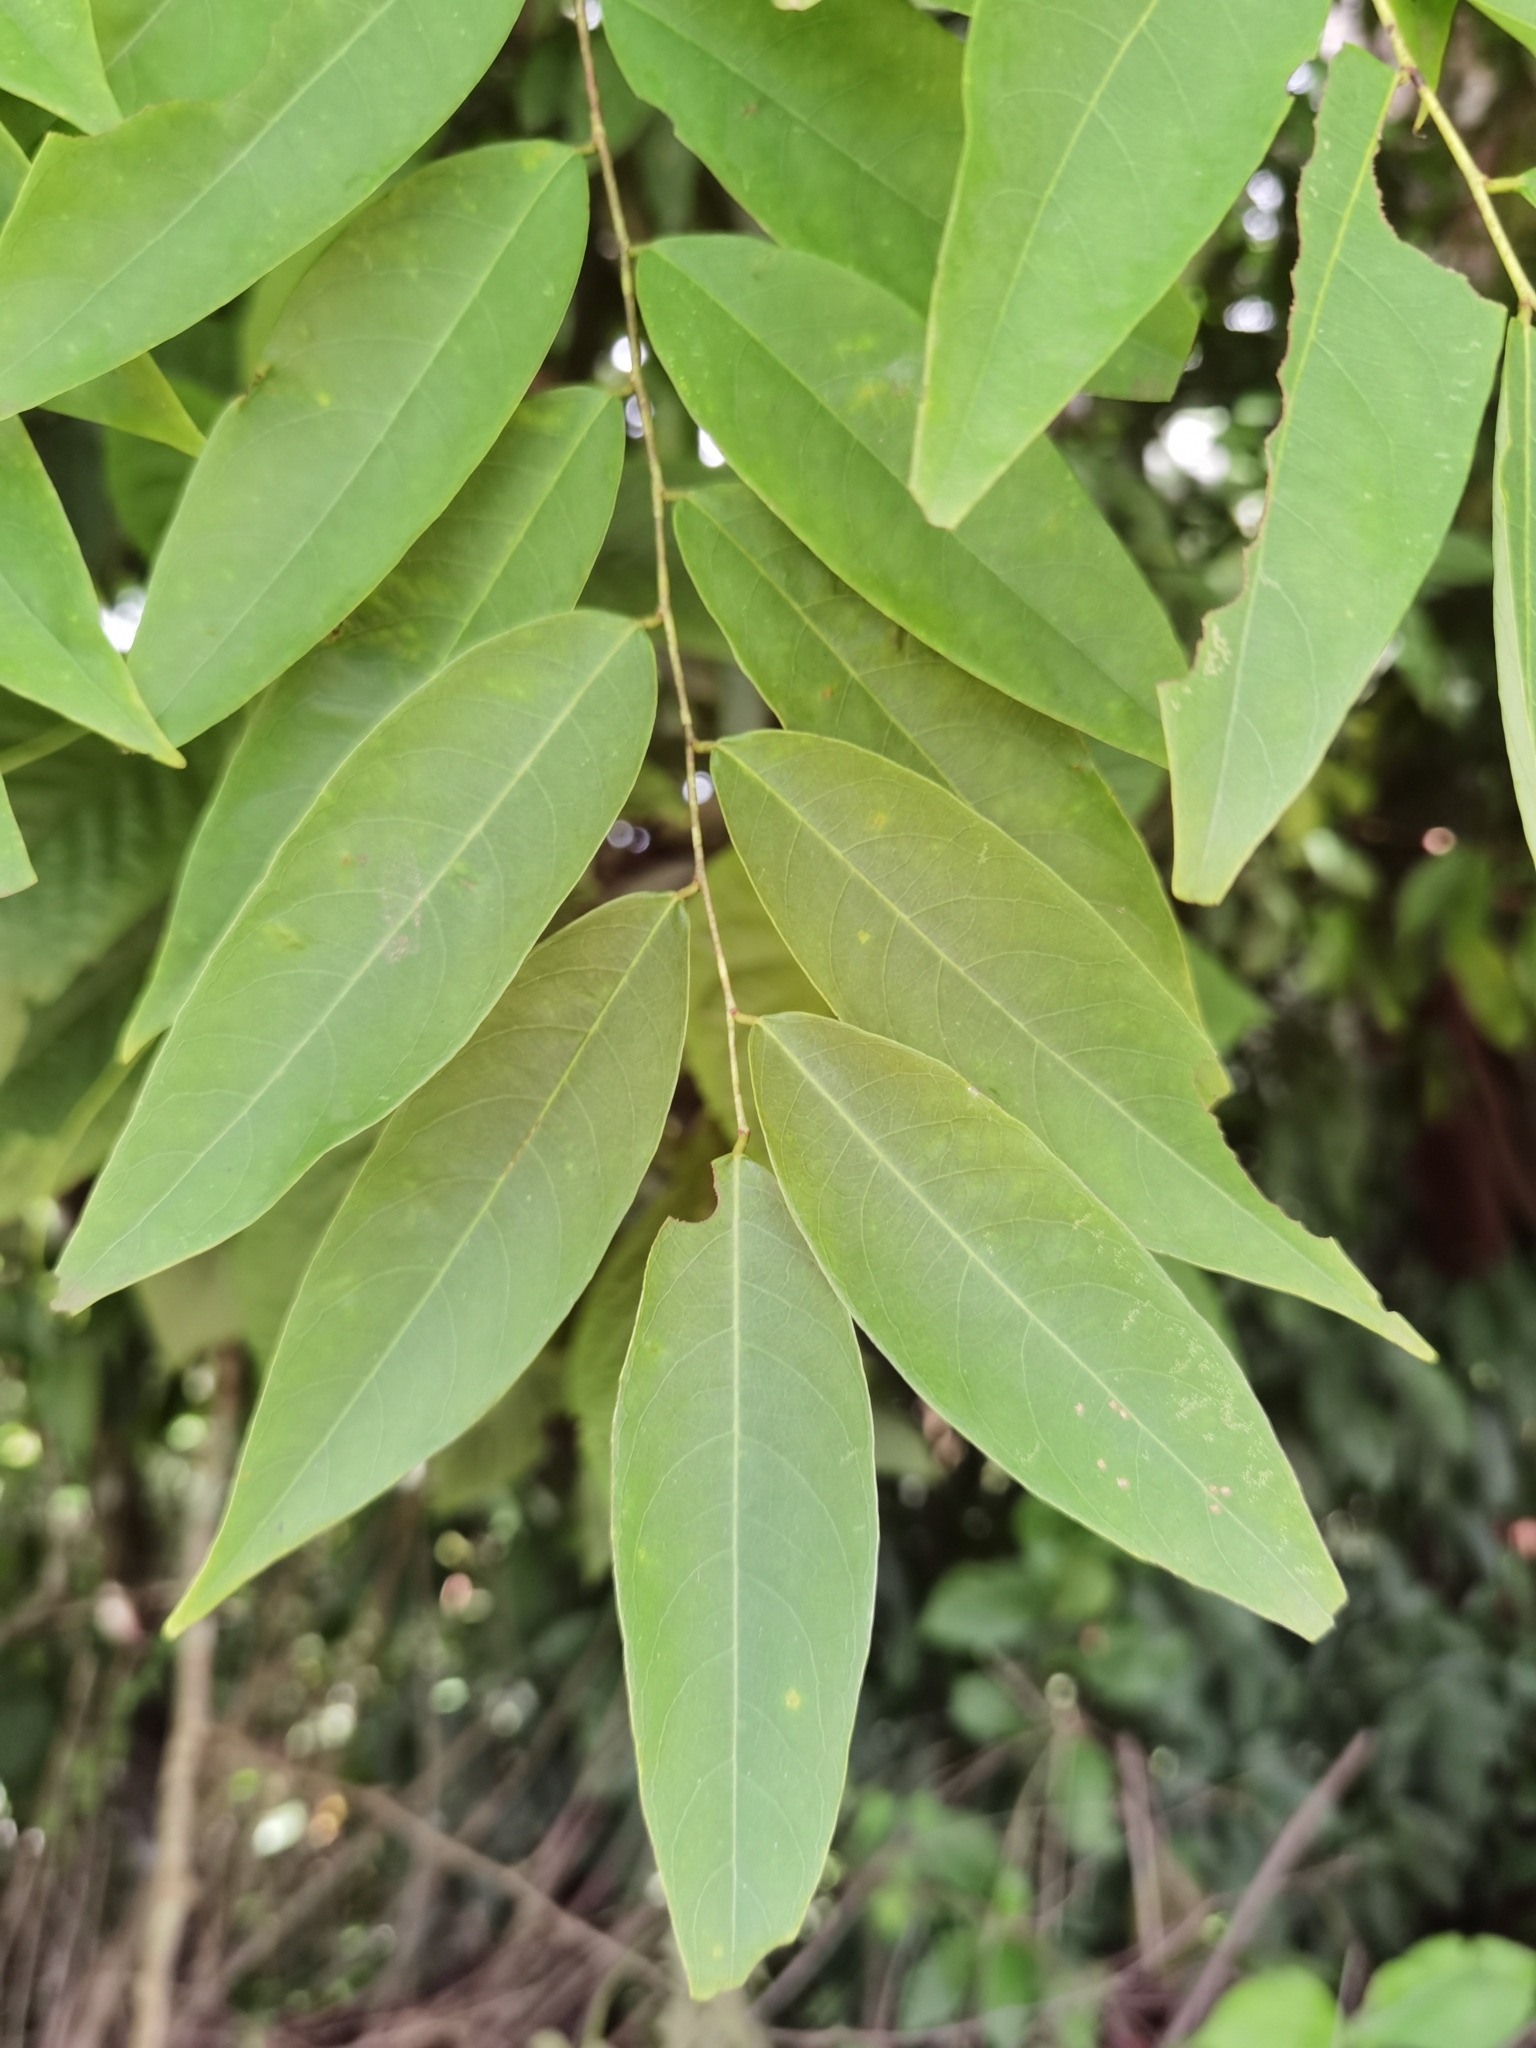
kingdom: Plantae
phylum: Tracheophyta
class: Magnoliopsida
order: Malpighiales
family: Phyllanthaceae
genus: Phyllanthus
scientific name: Phyllanthus skutchii
